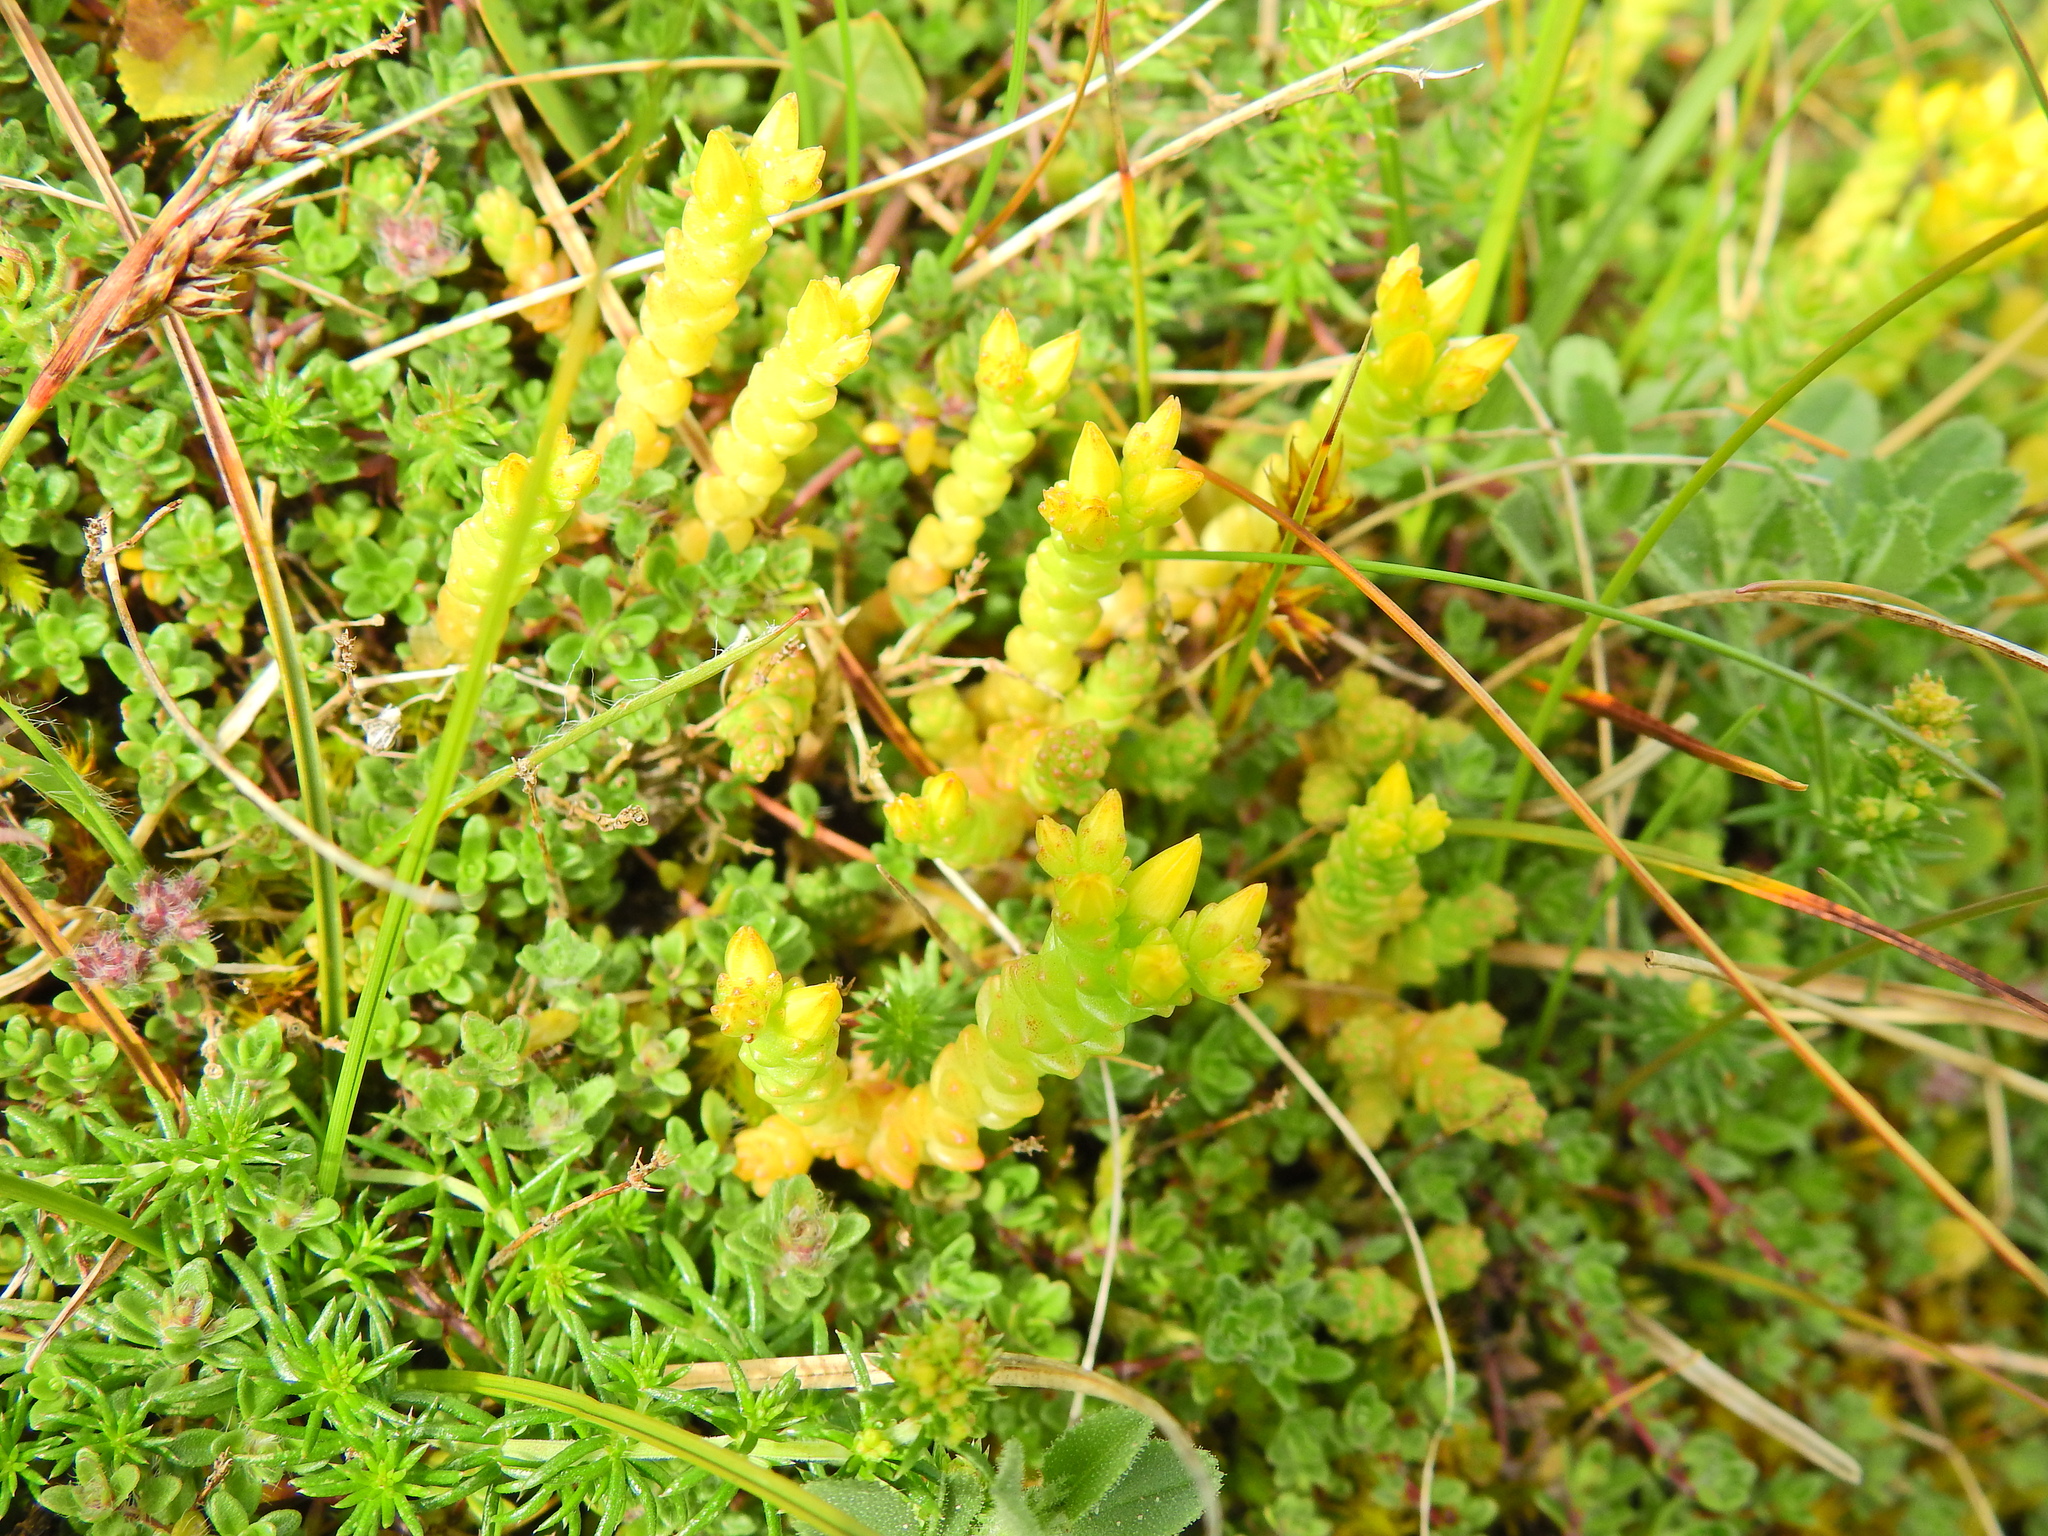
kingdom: Plantae
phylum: Tracheophyta
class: Magnoliopsida
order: Saxifragales
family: Crassulaceae
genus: Sedum
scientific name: Sedum acre
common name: Biting stonecrop
